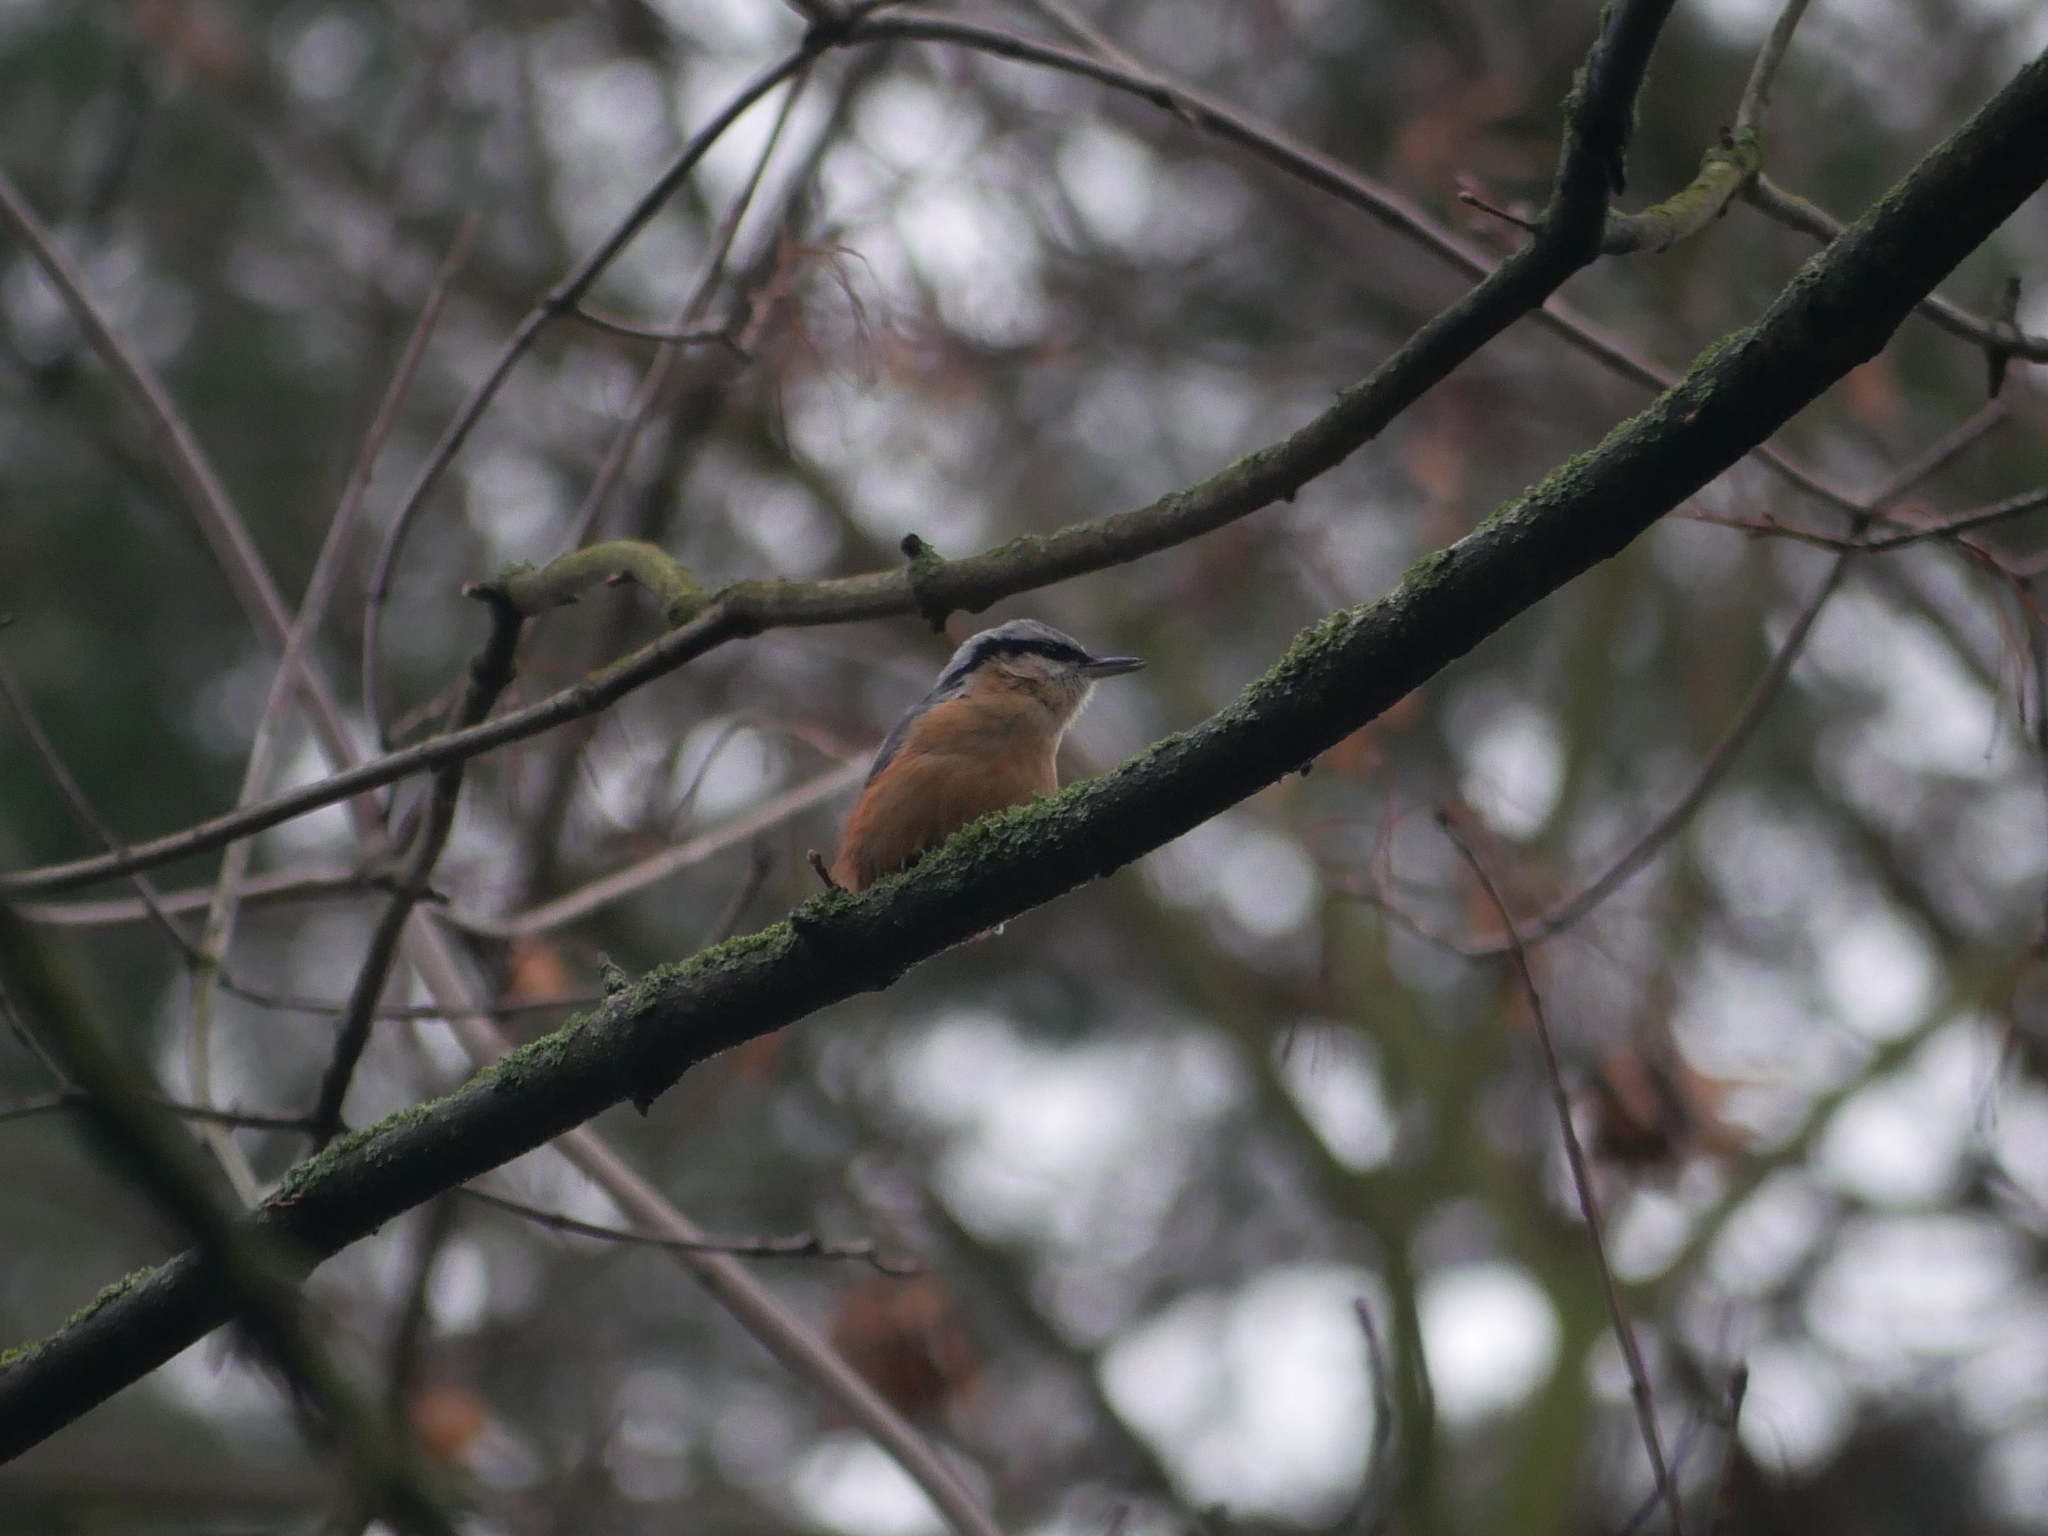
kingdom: Animalia
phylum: Chordata
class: Aves
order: Passeriformes
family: Sittidae
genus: Sitta
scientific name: Sitta europaea
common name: Eurasian nuthatch
